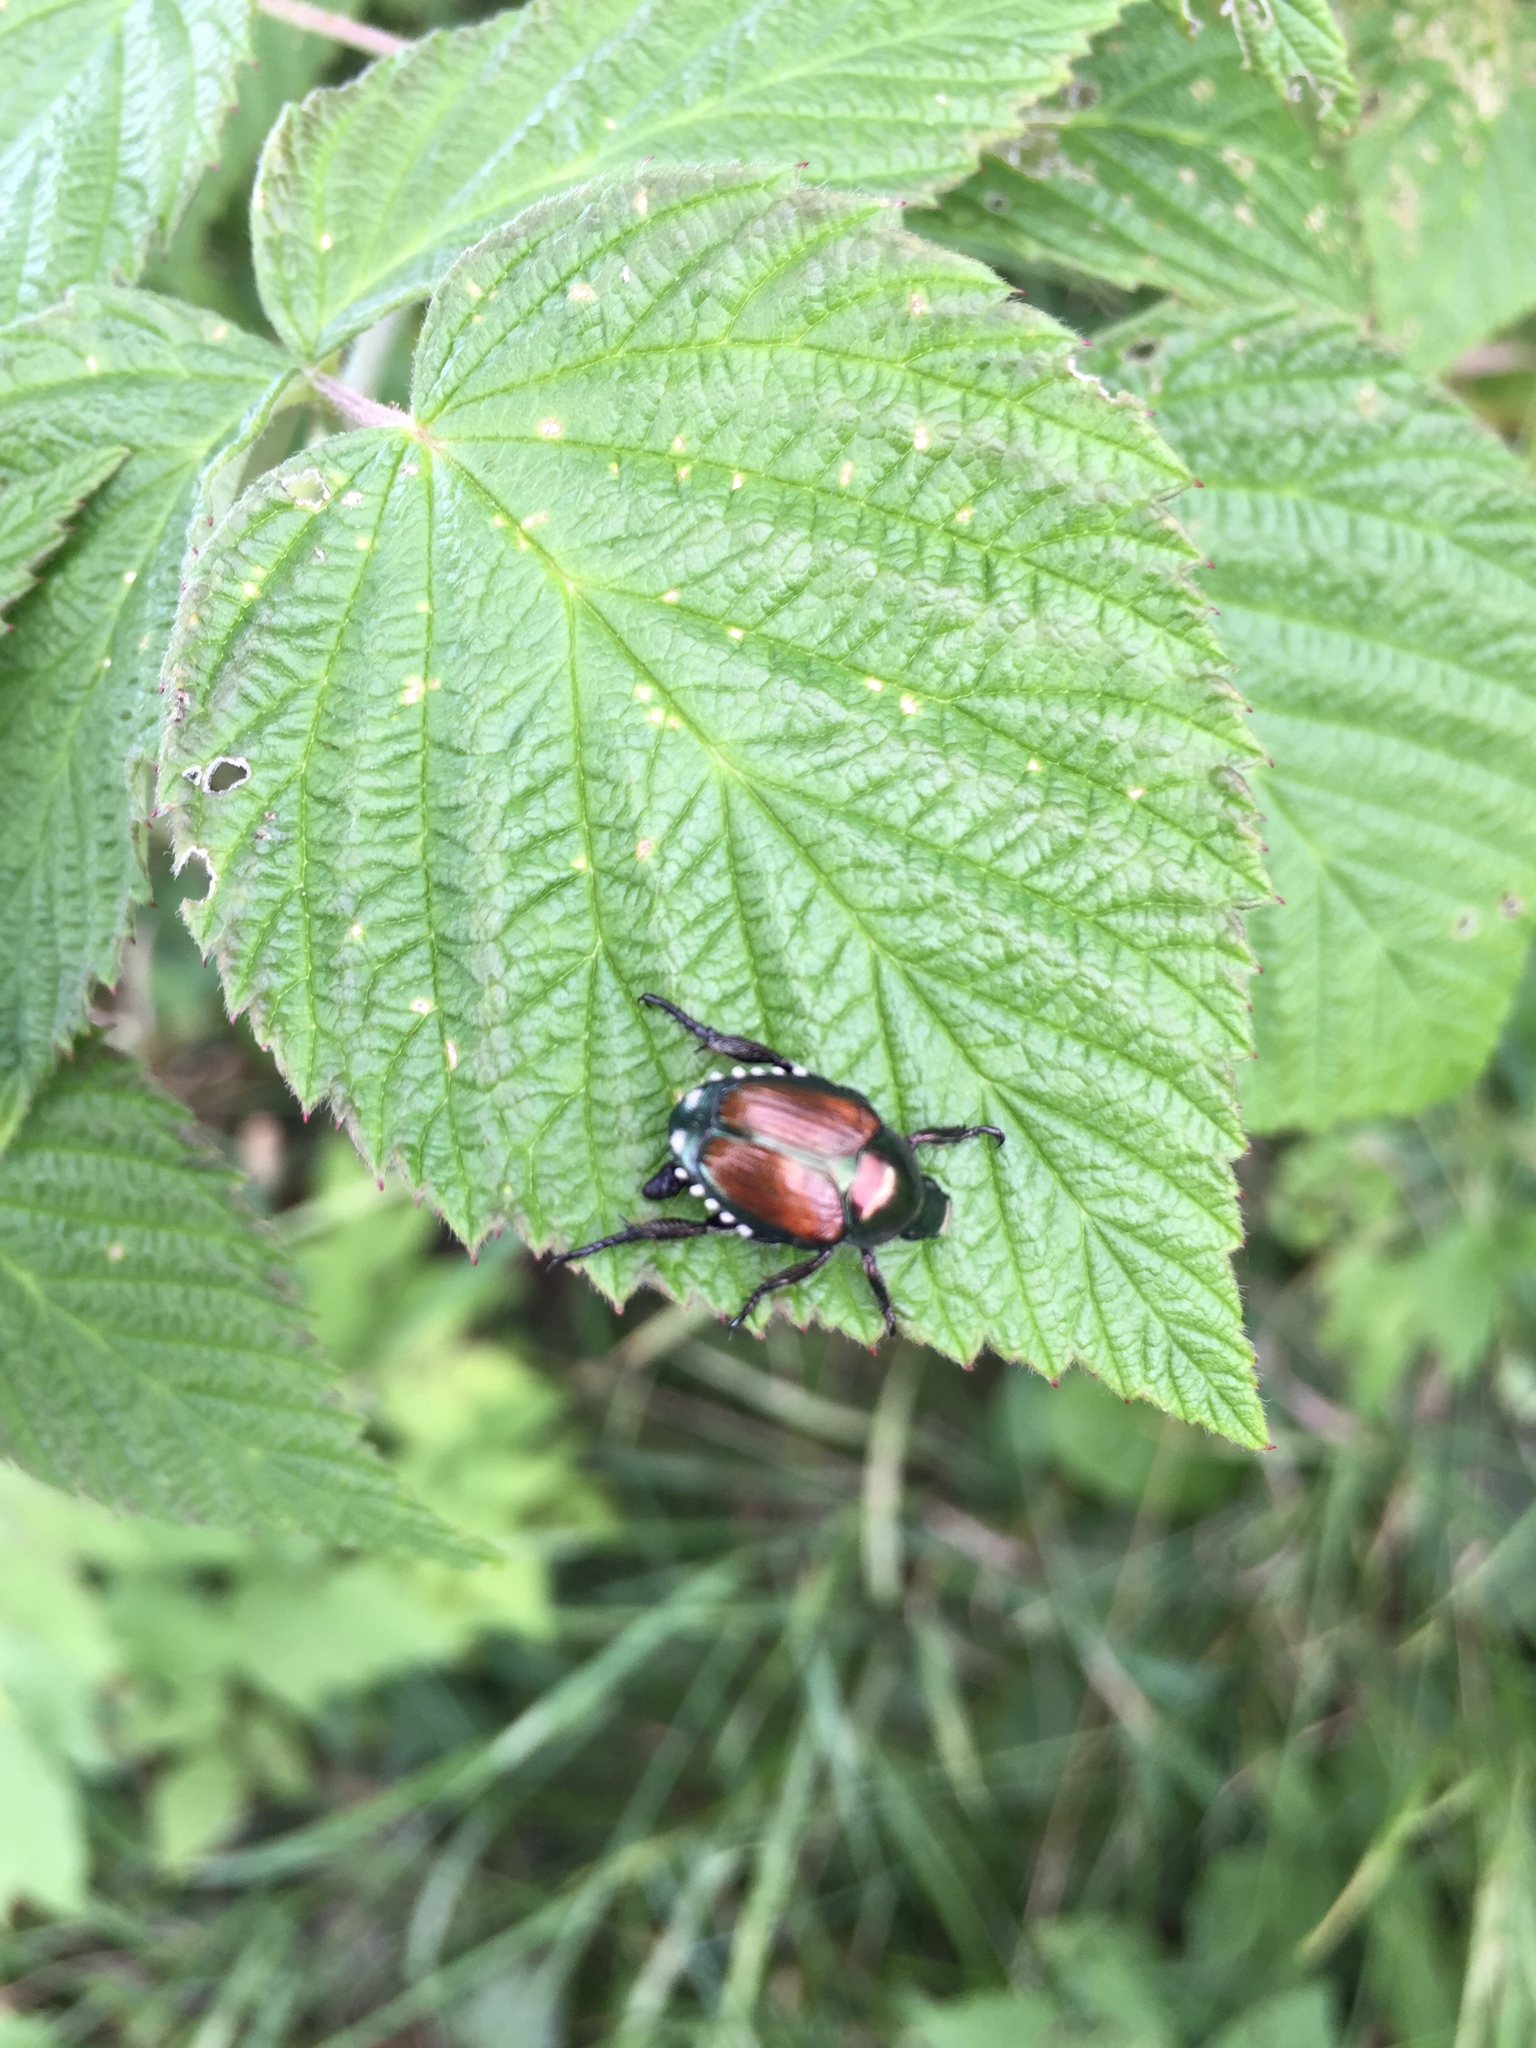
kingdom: Animalia
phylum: Arthropoda
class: Insecta
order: Coleoptera
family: Scarabaeidae
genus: Popillia
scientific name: Popillia japonica
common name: Japanese beetle
